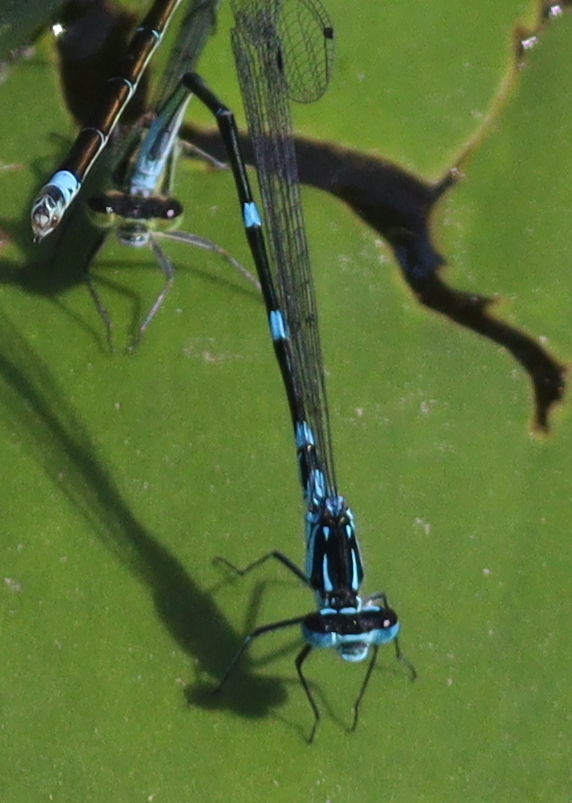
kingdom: Animalia
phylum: Arthropoda
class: Insecta
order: Odonata
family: Coenagrionidae
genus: Coenagrion
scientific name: Coenagrion pulchellum
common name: Variable bluet
